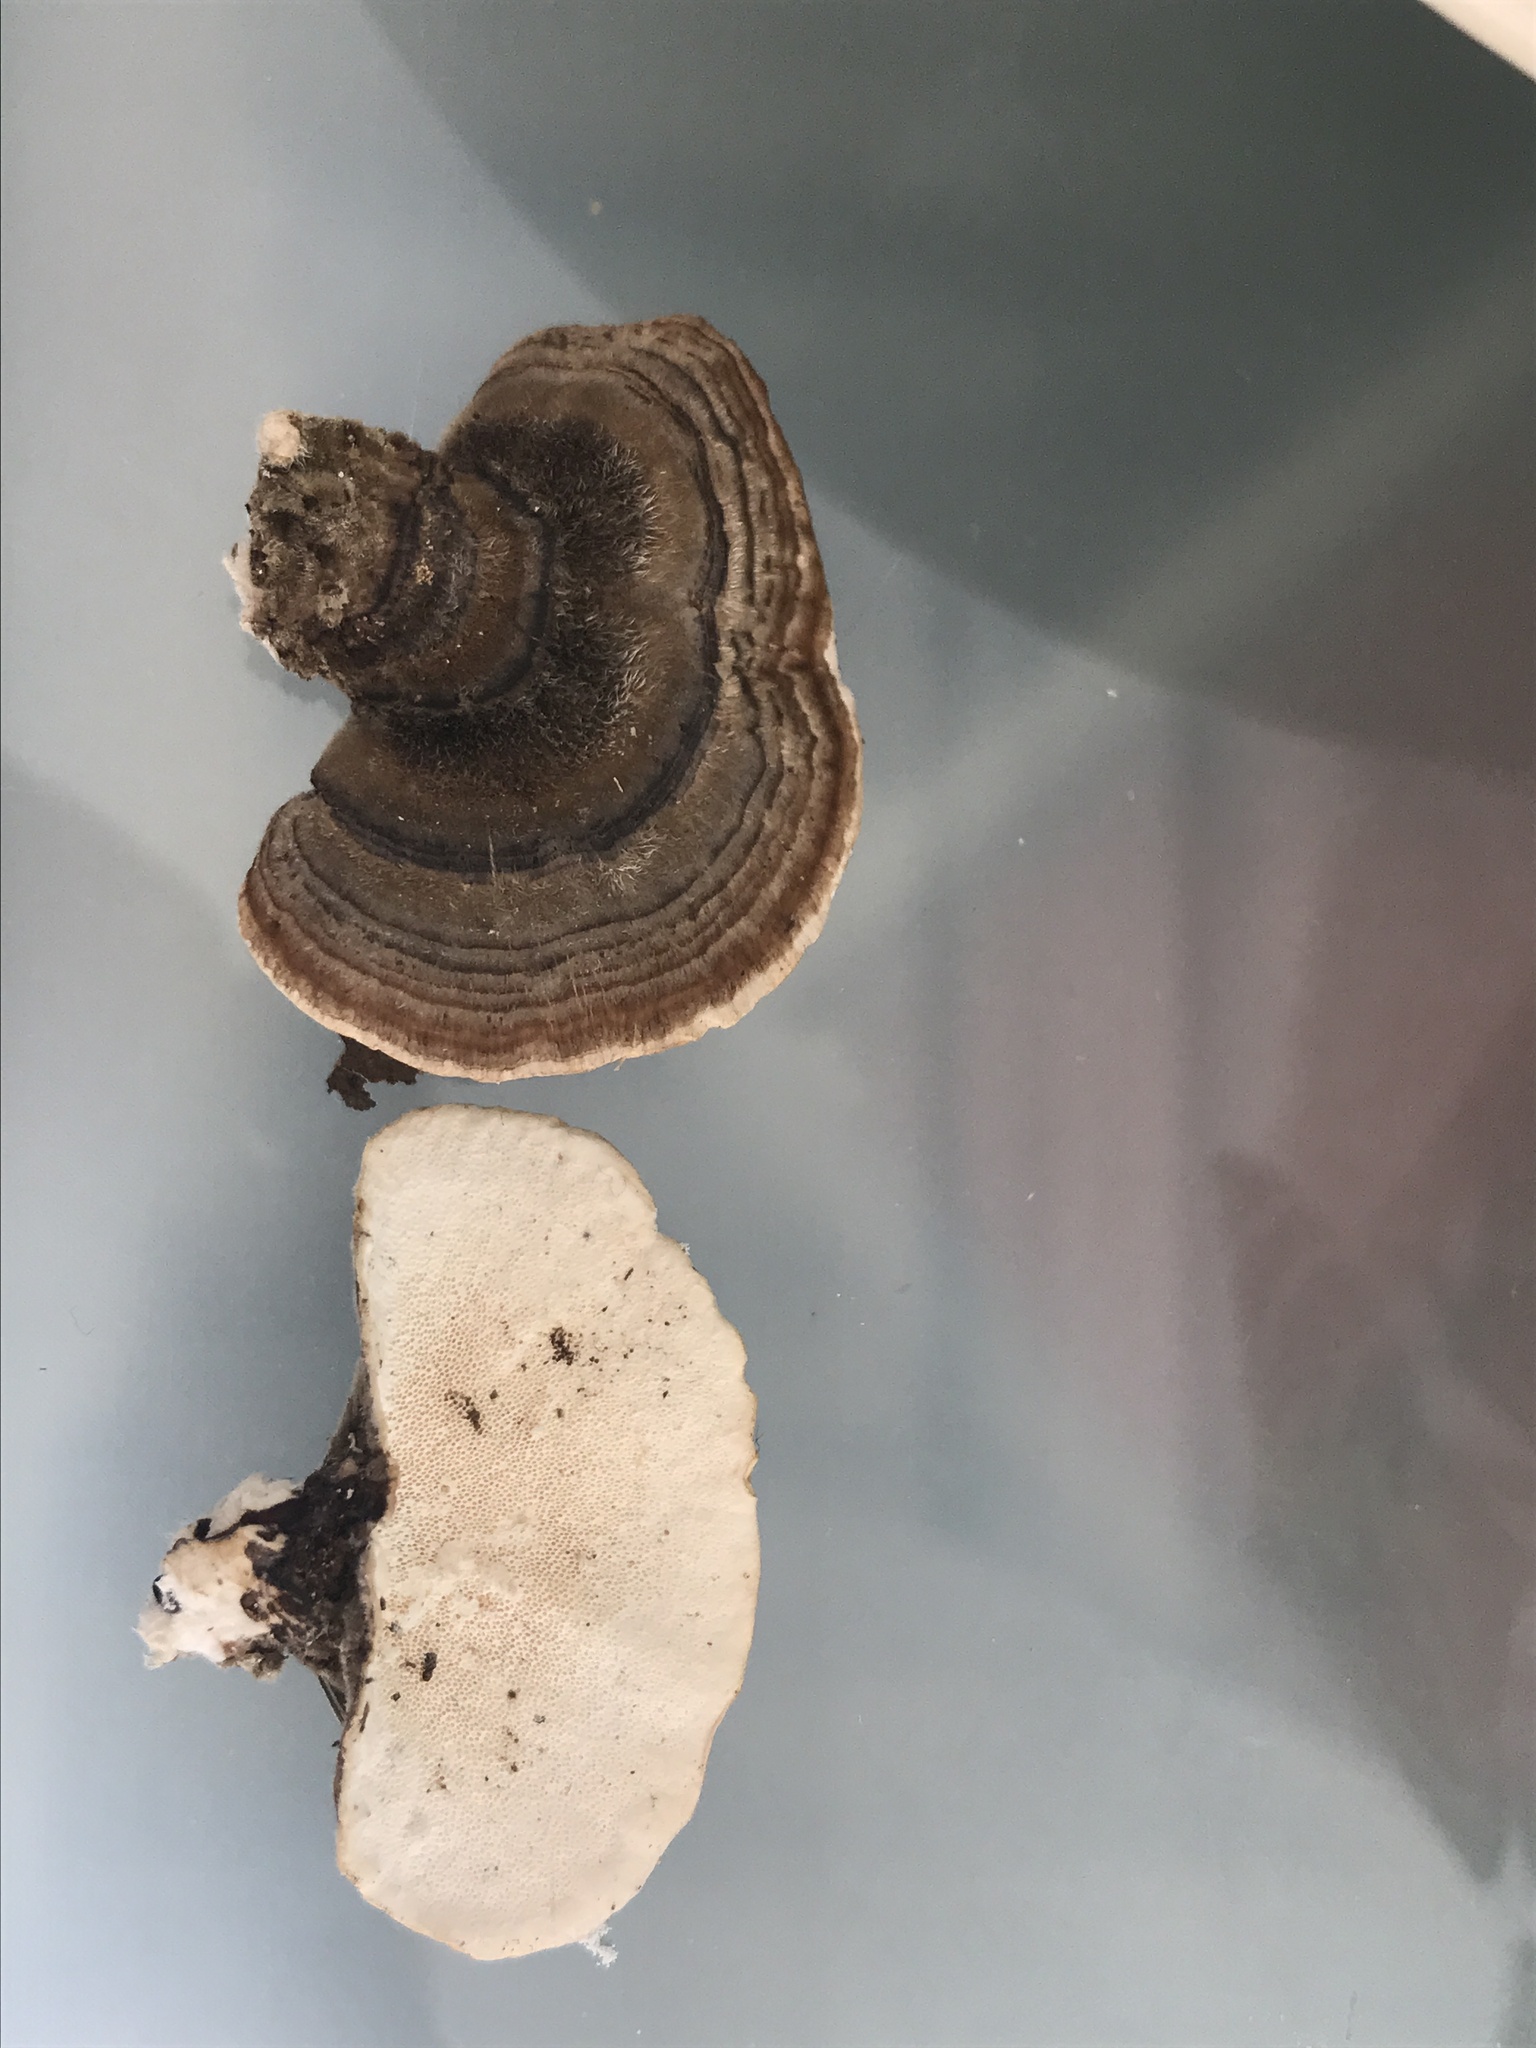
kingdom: Fungi
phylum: Basidiomycota
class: Agaricomycetes
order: Polyporales
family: Polyporaceae
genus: Trametes
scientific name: Trametes versicolor
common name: Turkeytail
